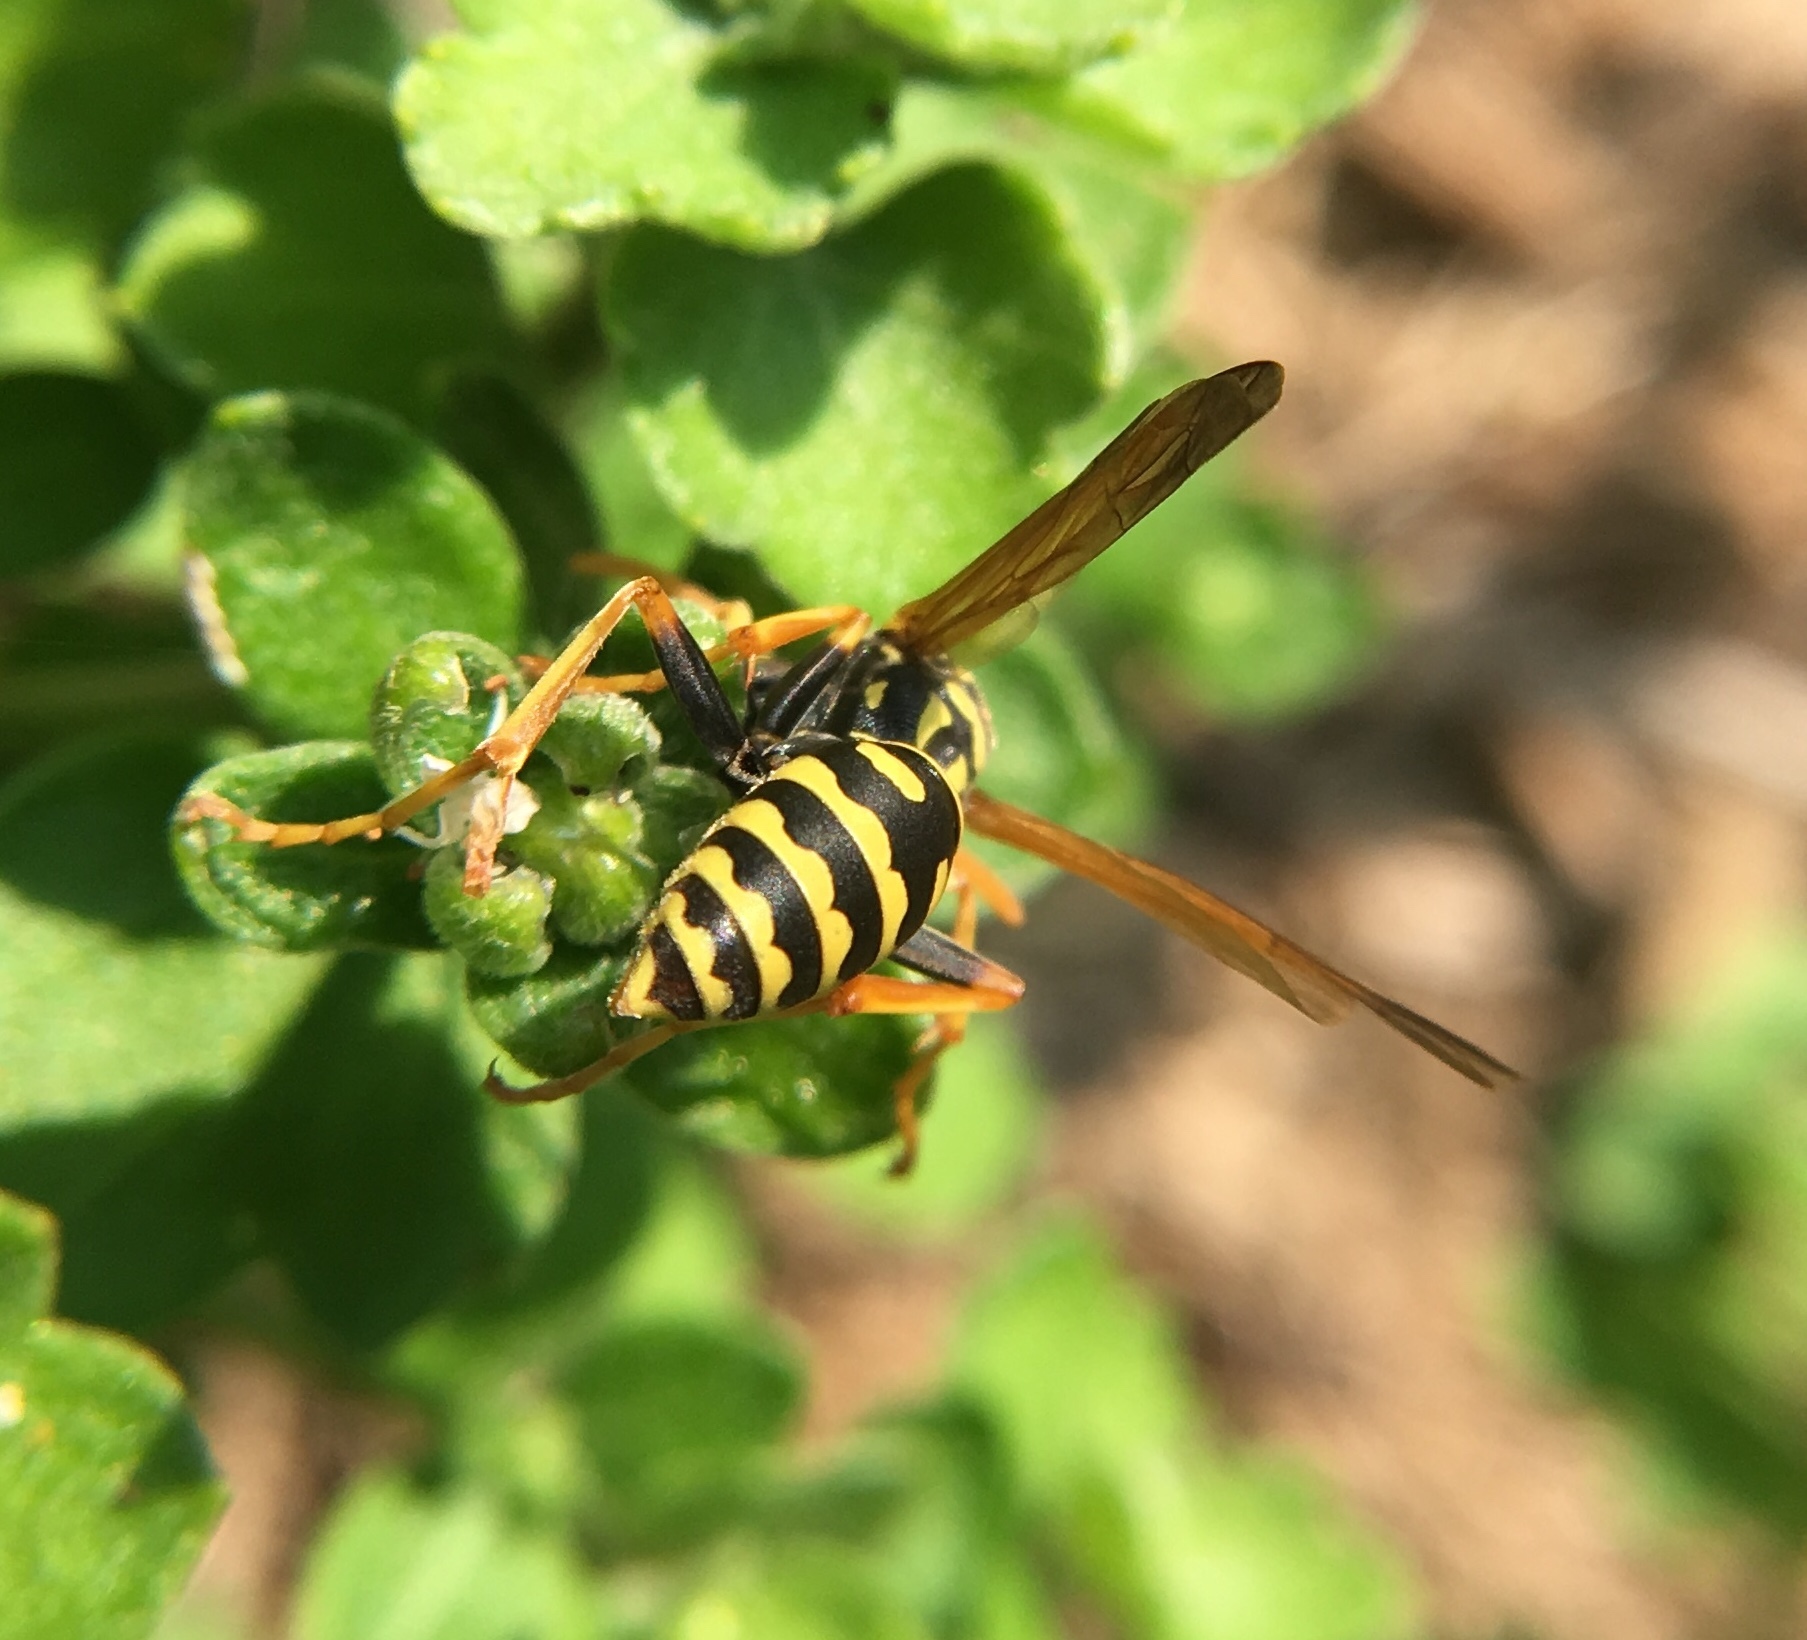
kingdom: Animalia
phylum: Arthropoda
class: Insecta
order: Hymenoptera
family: Eumenidae
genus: Polistes
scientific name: Polistes dominula
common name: Paper wasp
